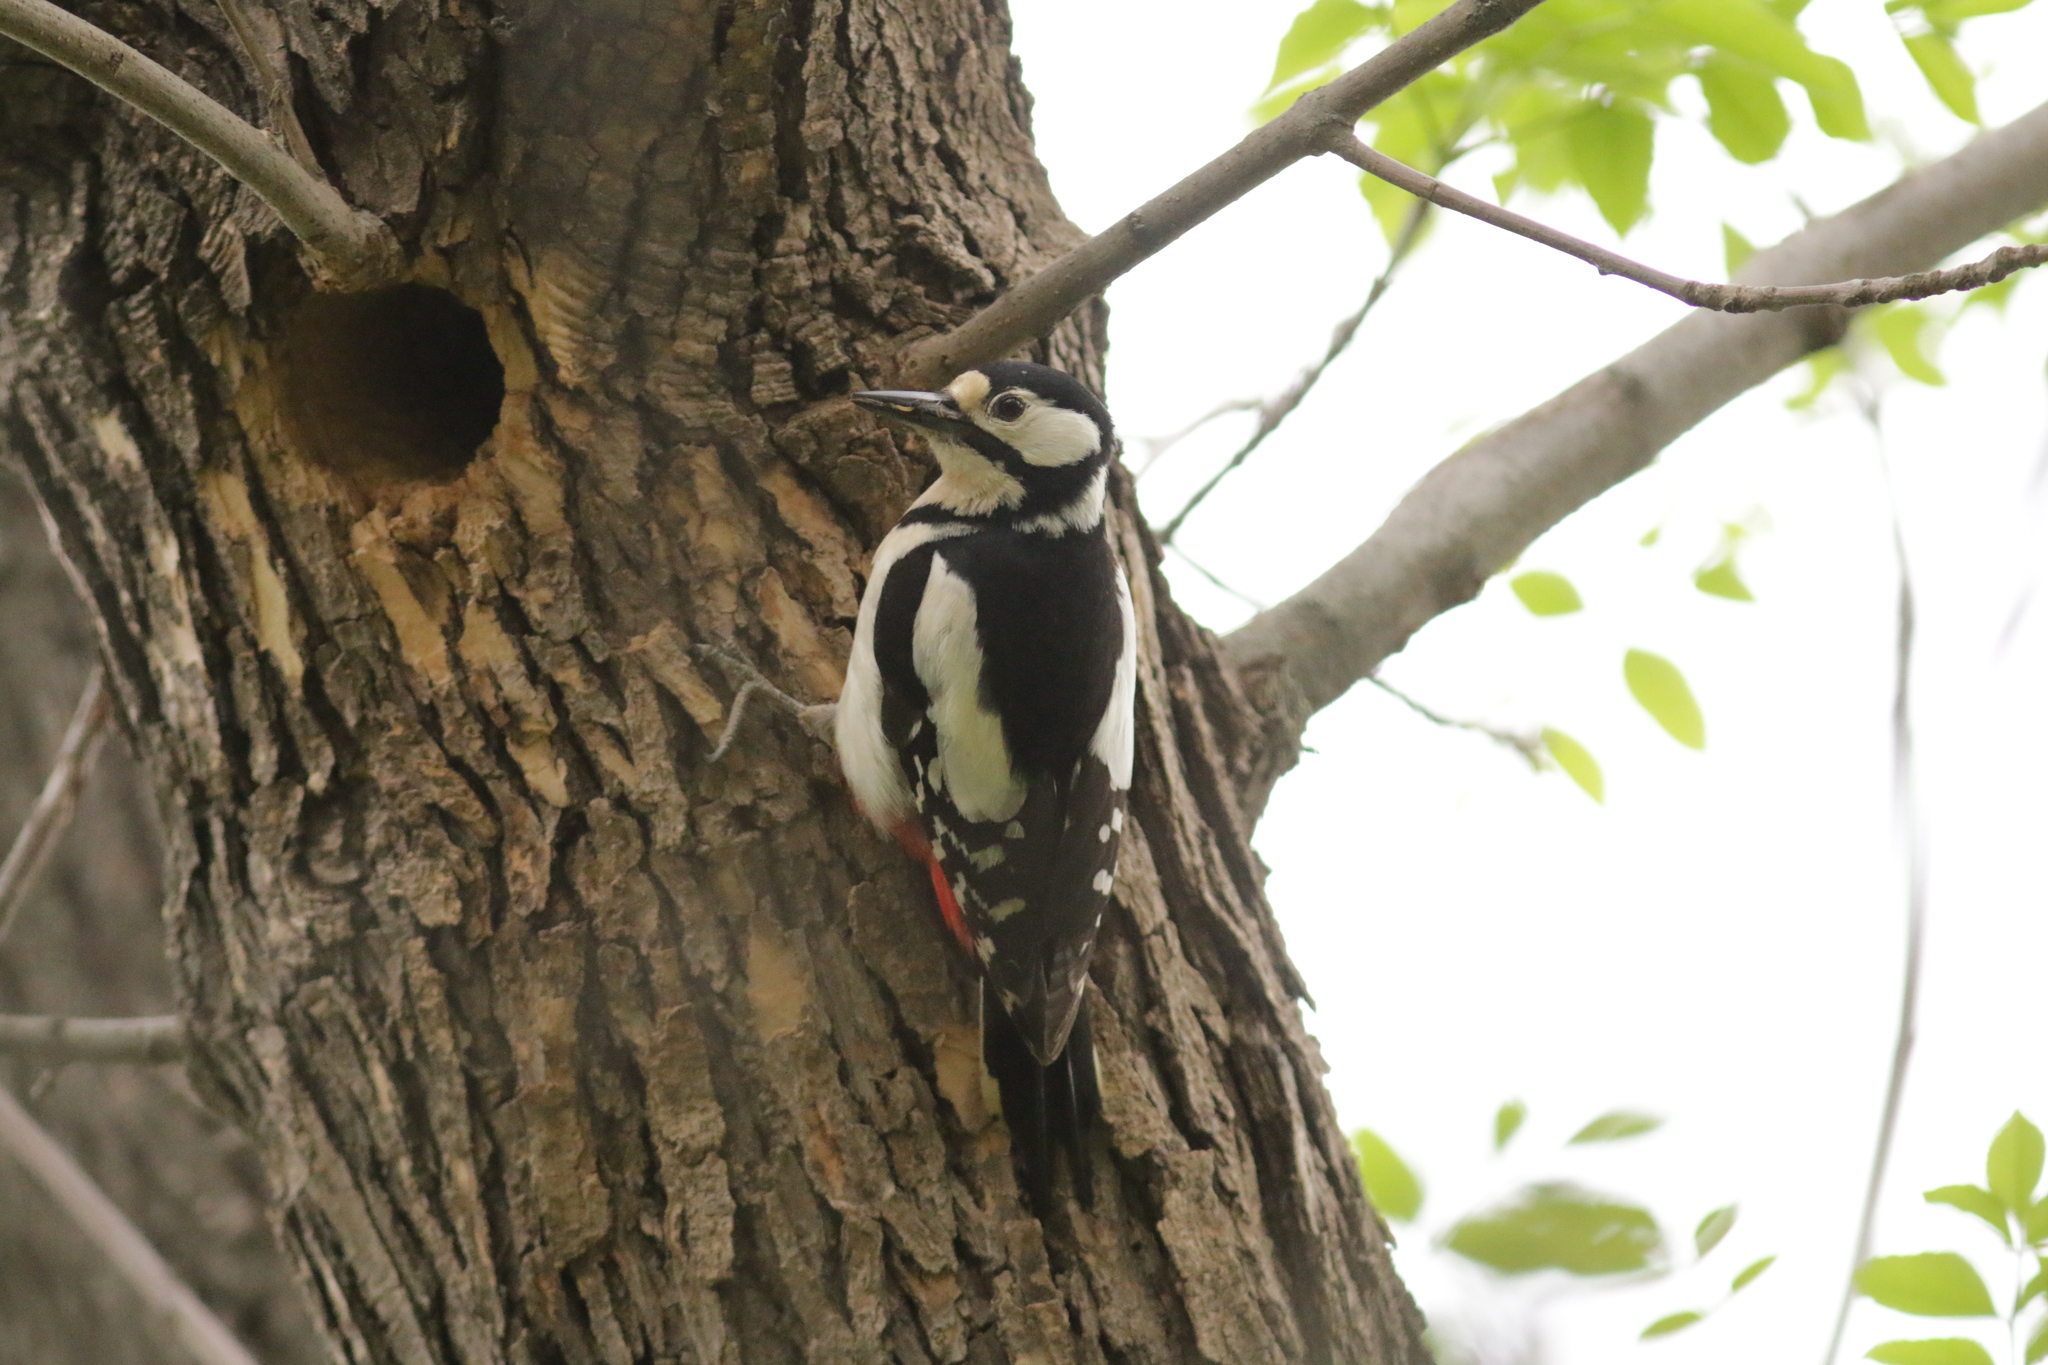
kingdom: Animalia
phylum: Chordata
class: Aves
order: Piciformes
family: Picidae
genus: Dendrocopos
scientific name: Dendrocopos major
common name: Great spotted woodpecker
